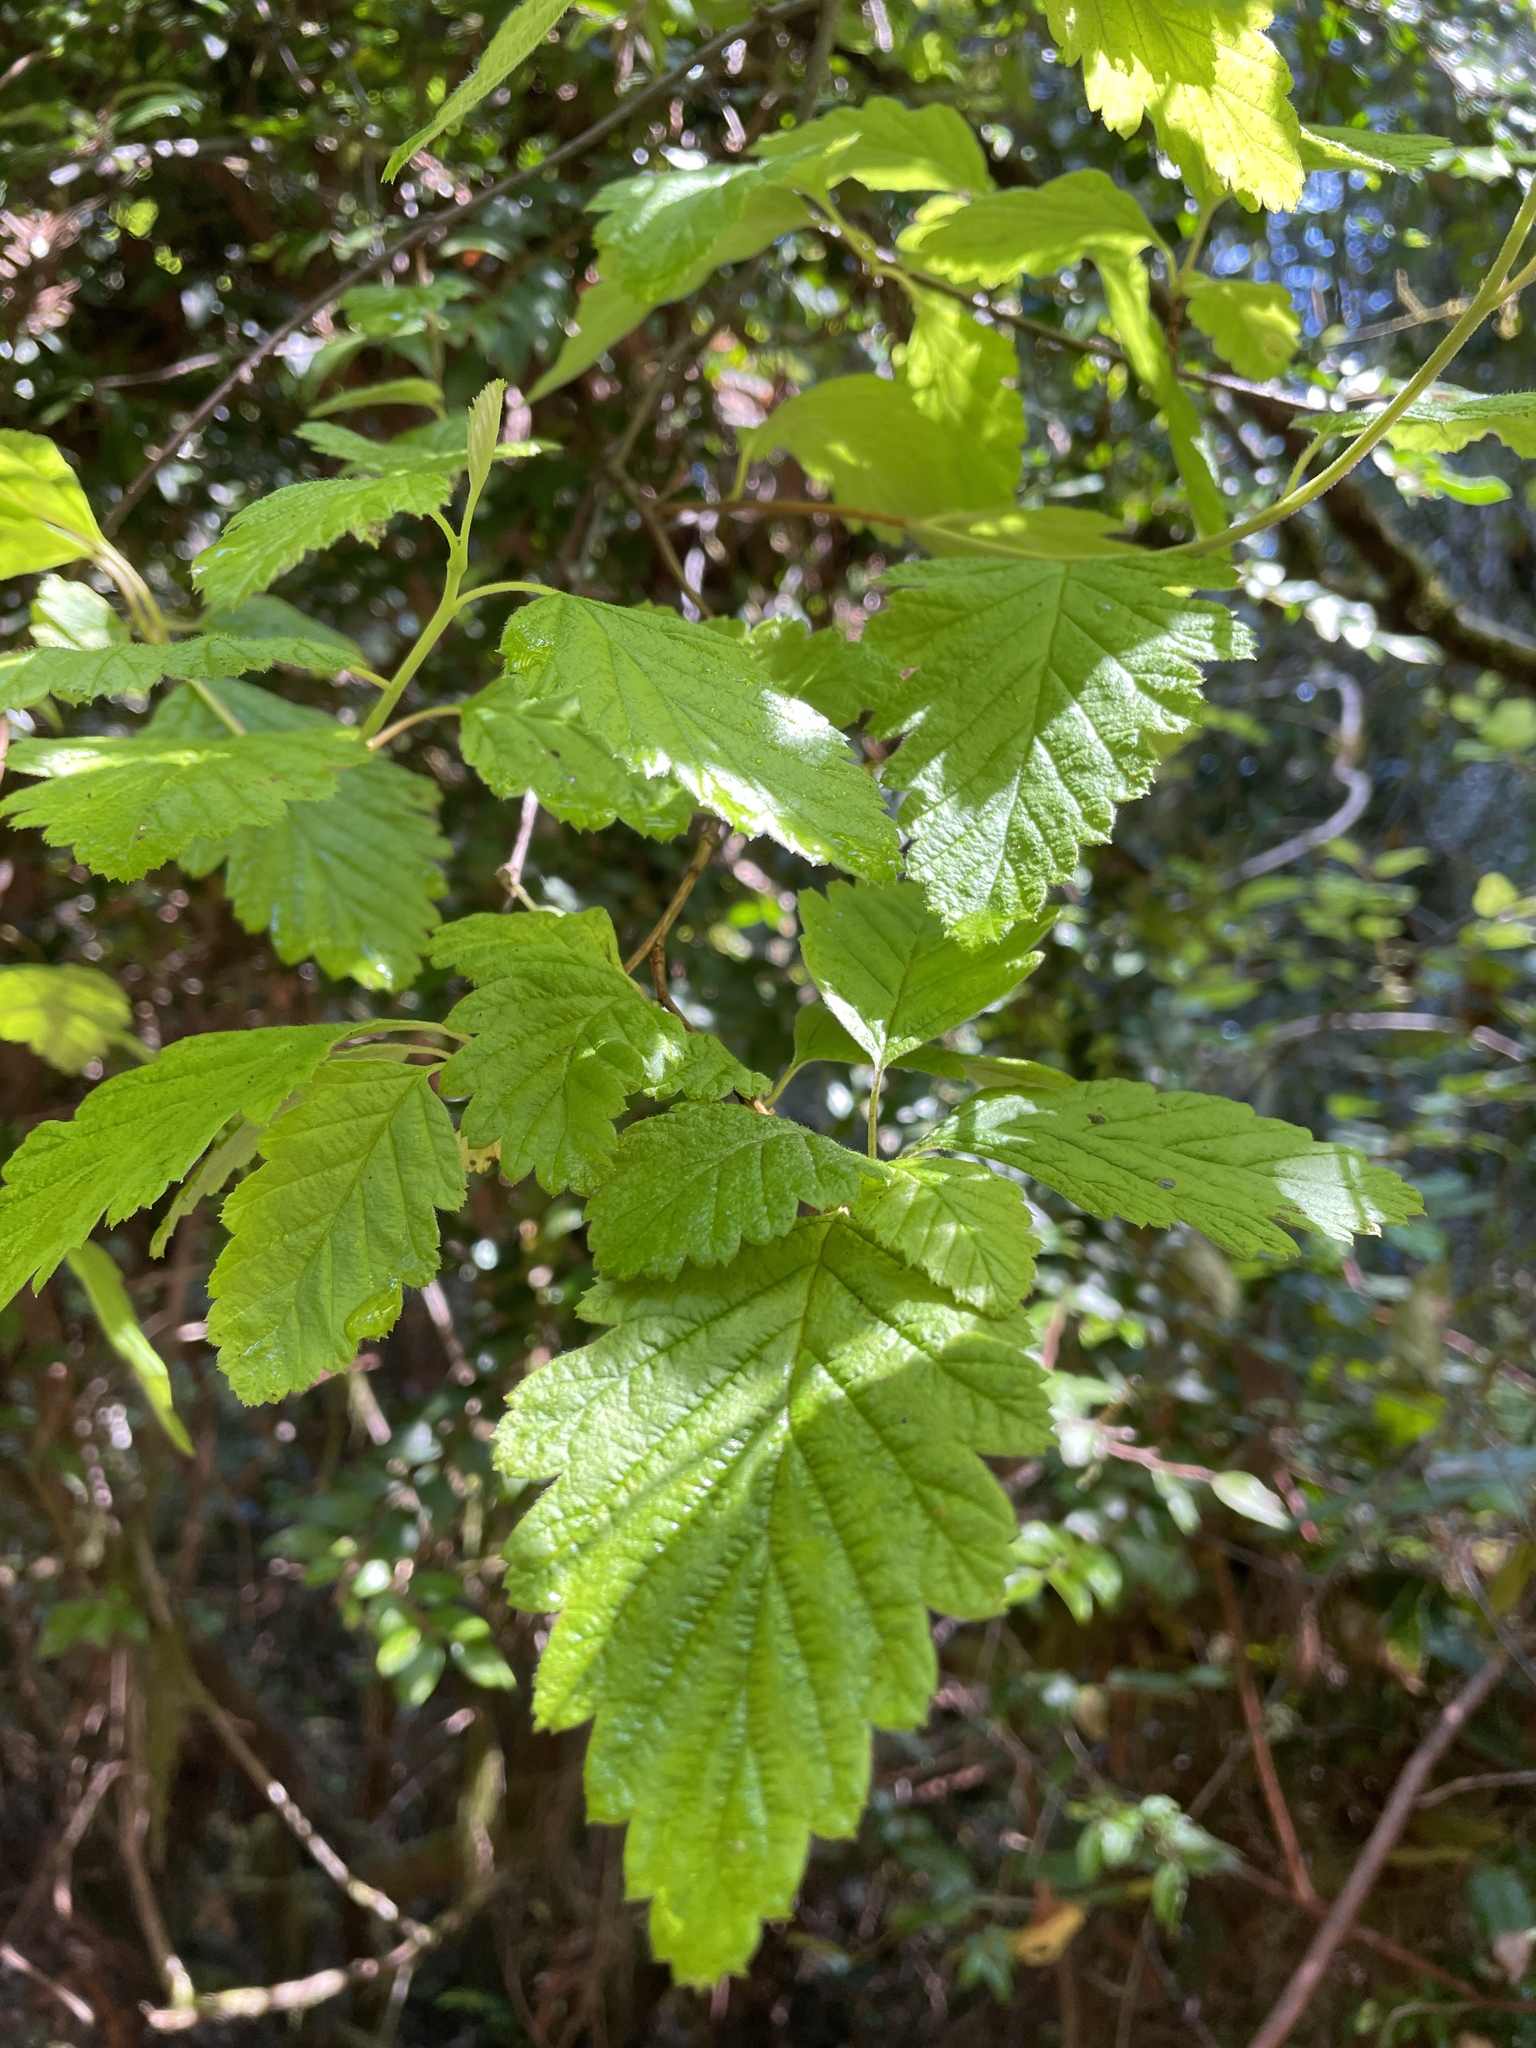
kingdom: Plantae
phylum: Tracheophyta
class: Magnoliopsida
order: Rosales
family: Rosaceae
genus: Holodiscus
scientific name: Holodiscus discolor
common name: Oceanspray
